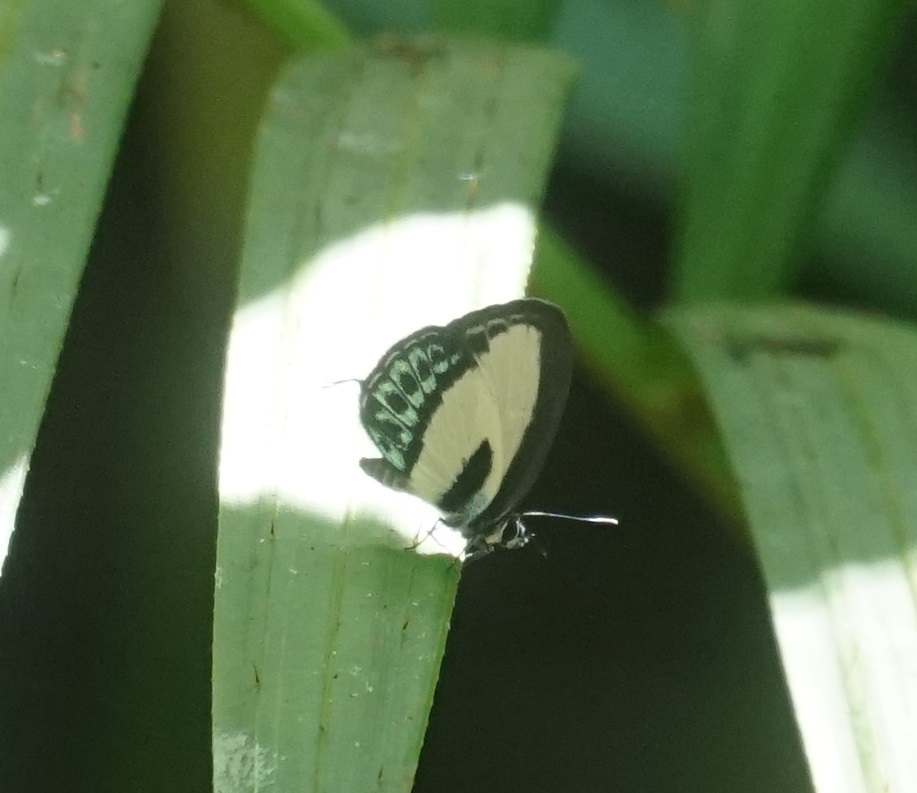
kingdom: Animalia
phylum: Arthropoda
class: Insecta
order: Lepidoptera
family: Lycaenidae
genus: Nacaduba
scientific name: Nacaduba cyanea
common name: Tailed green-banded line blue
